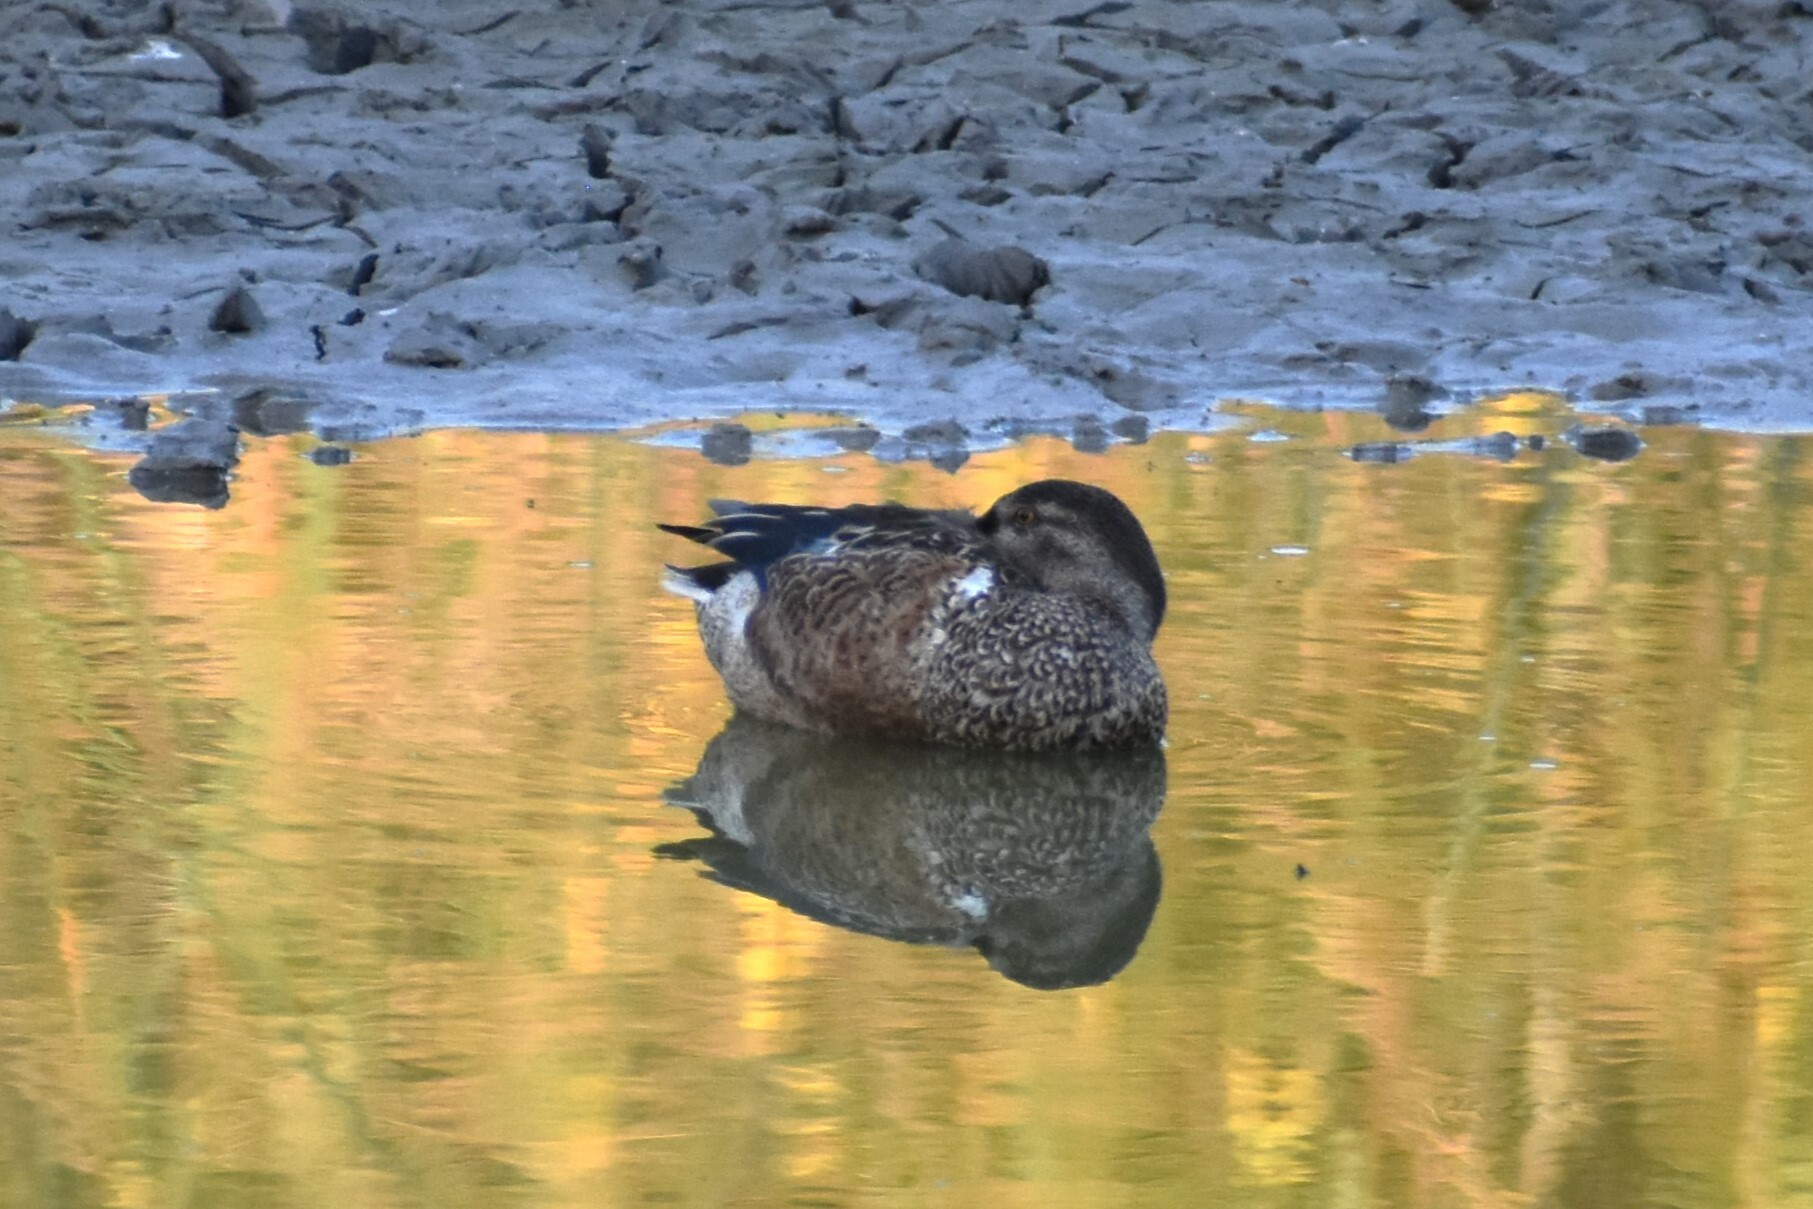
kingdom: Animalia
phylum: Chordata
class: Aves
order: Anseriformes
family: Anatidae
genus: Spatula
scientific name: Spatula clypeata
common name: Northern shoveler
